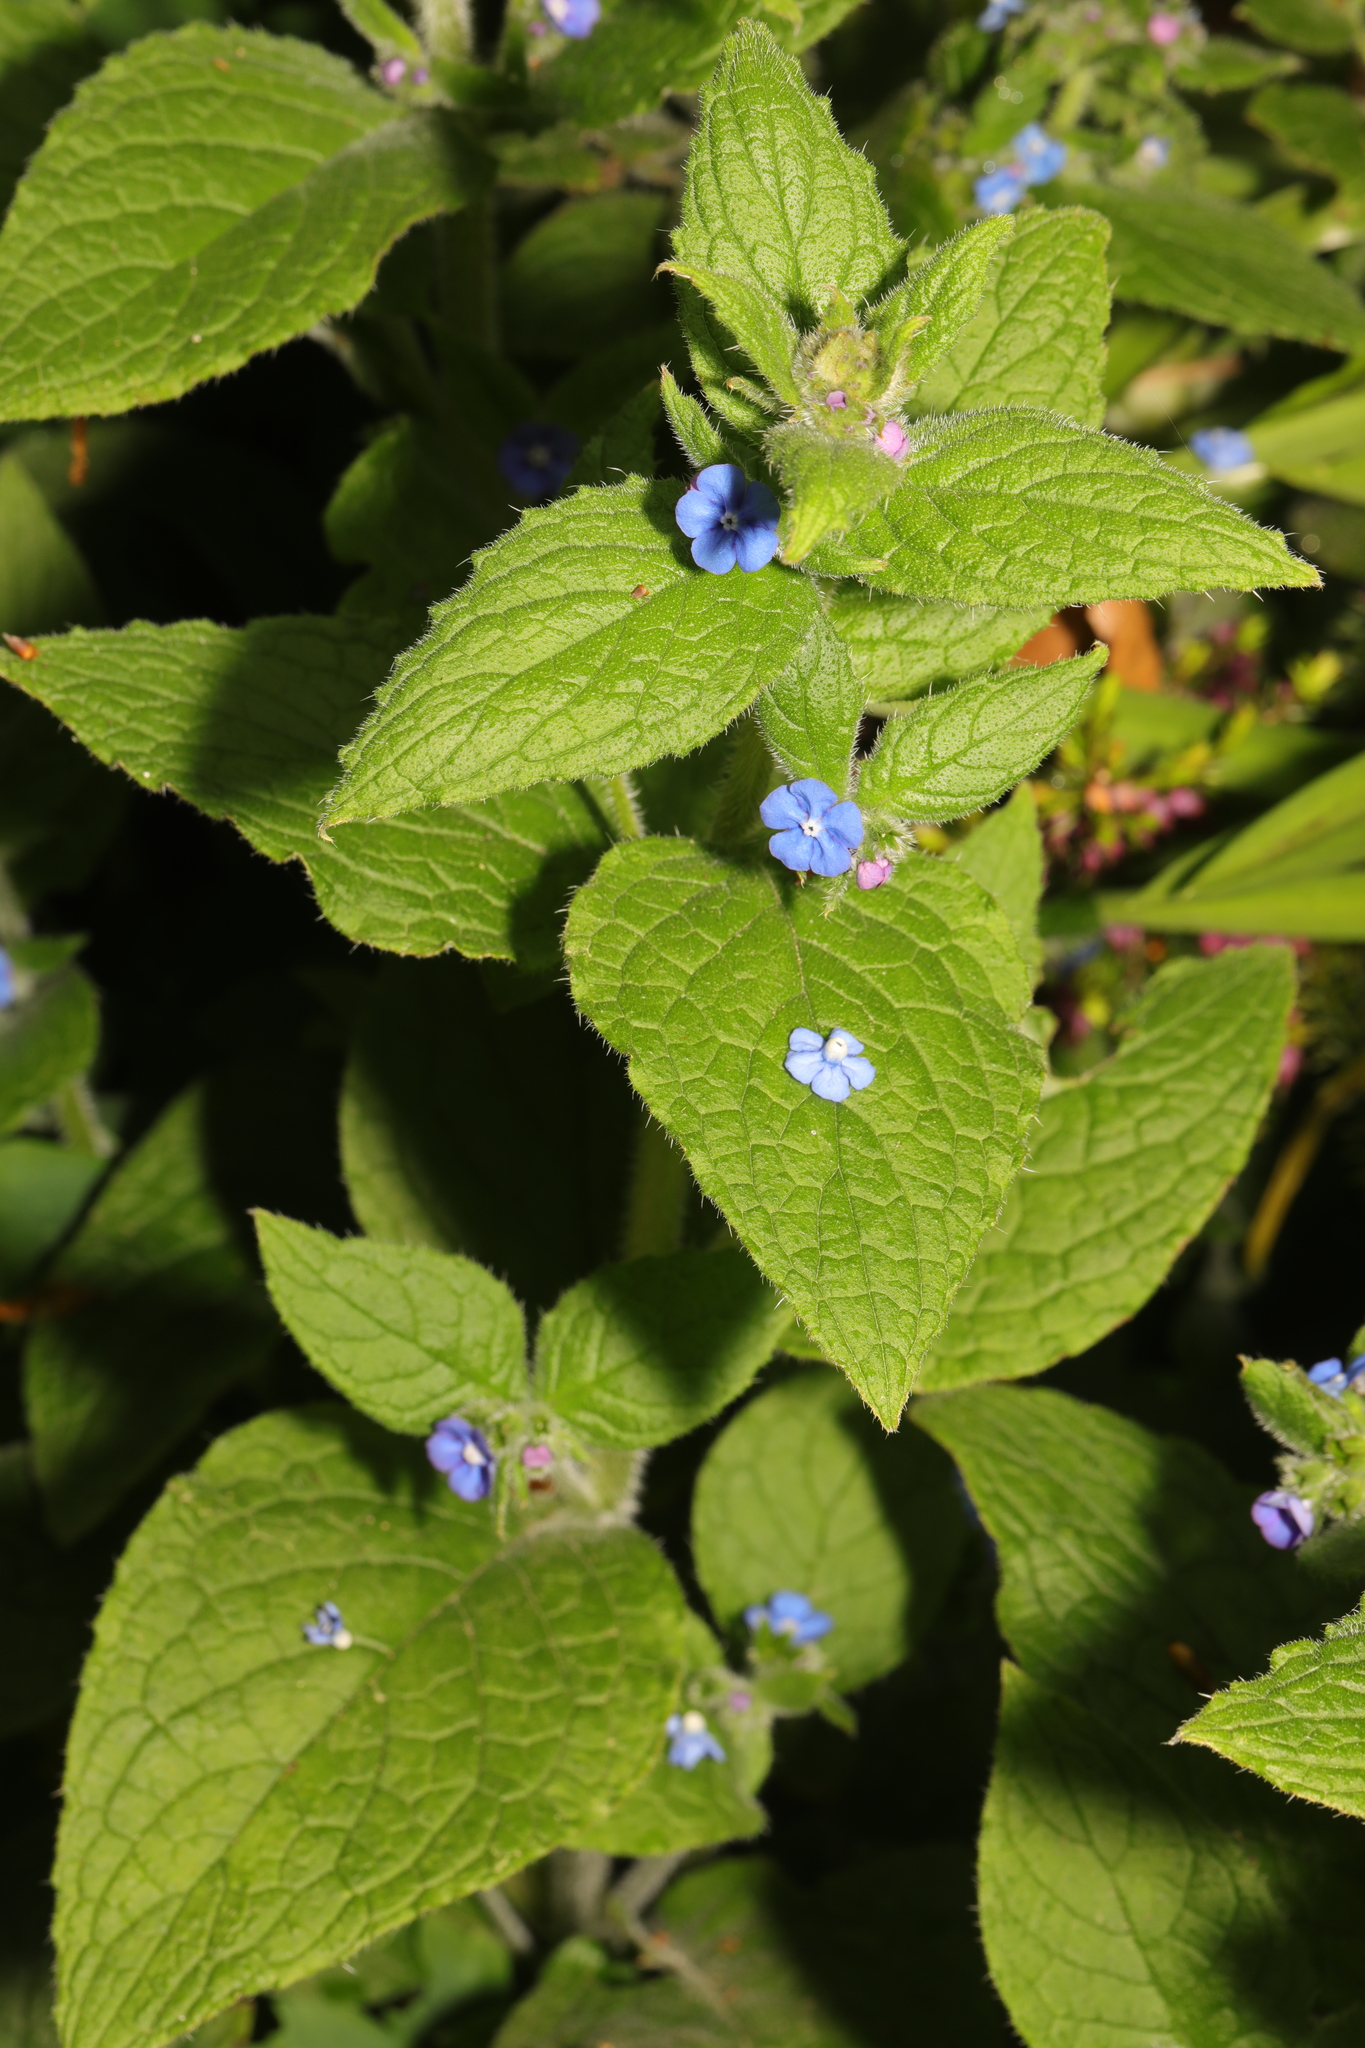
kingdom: Plantae
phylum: Tracheophyta
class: Magnoliopsida
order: Boraginales
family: Boraginaceae
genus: Pentaglottis
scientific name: Pentaglottis sempervirens
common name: Green alkanet
